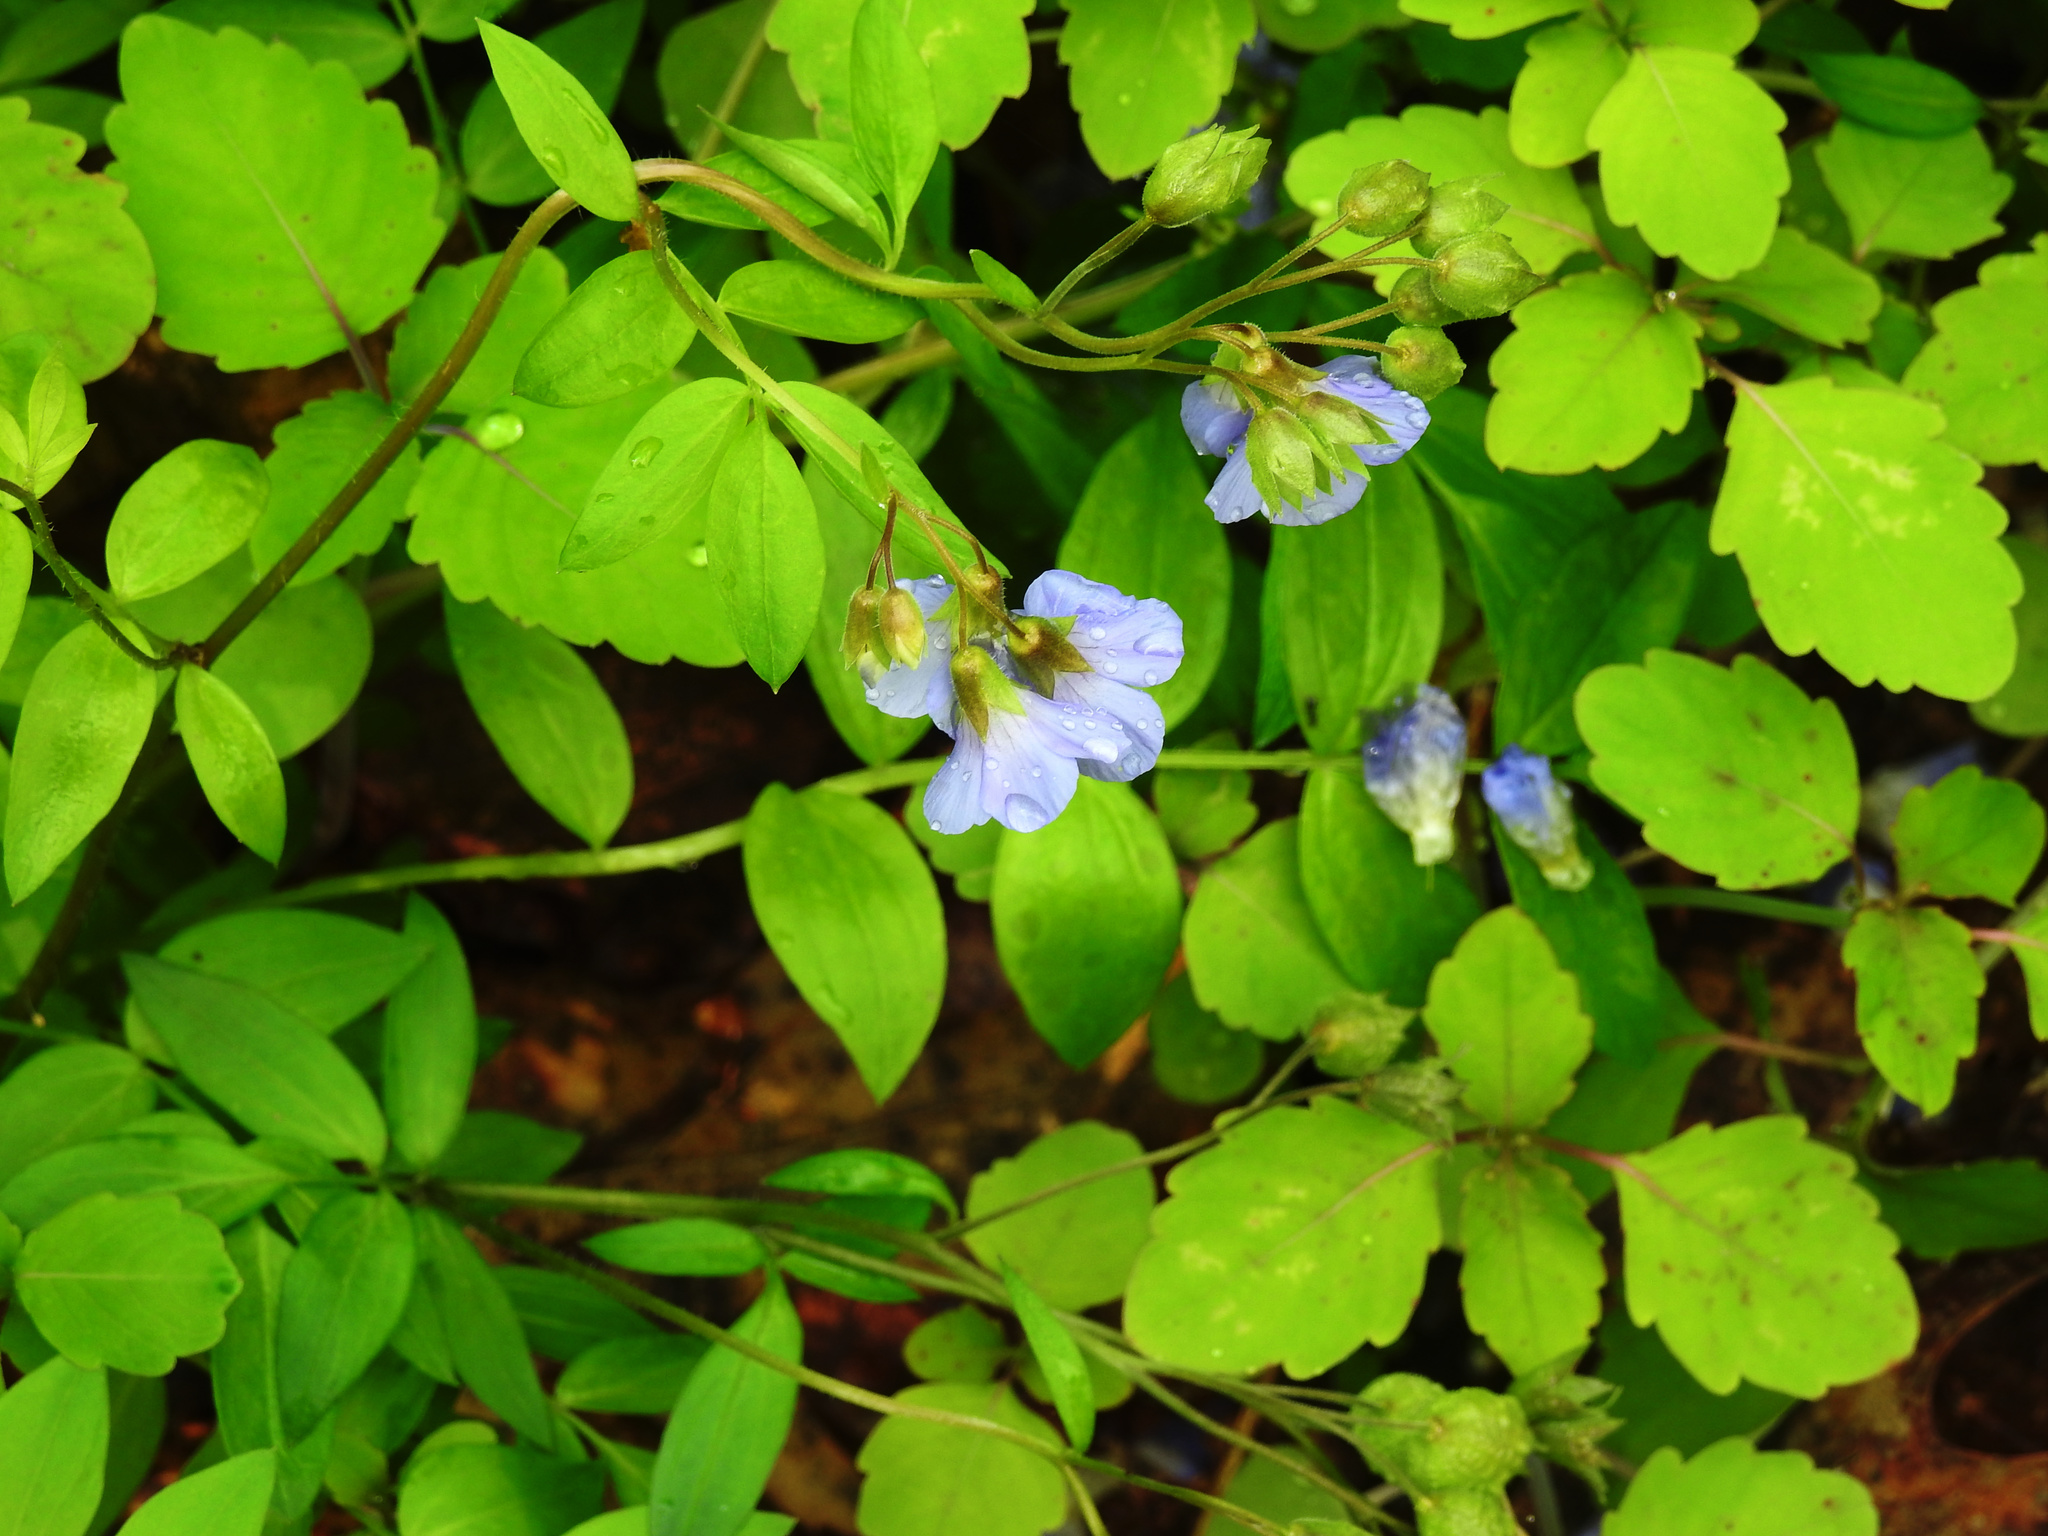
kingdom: Plantae
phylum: Tracheophyta
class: Magnoliopsida
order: Ericales
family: Polemoniaceae
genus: Polemonium
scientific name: Polemonium reptans
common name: Creeping jacob's-ladder
